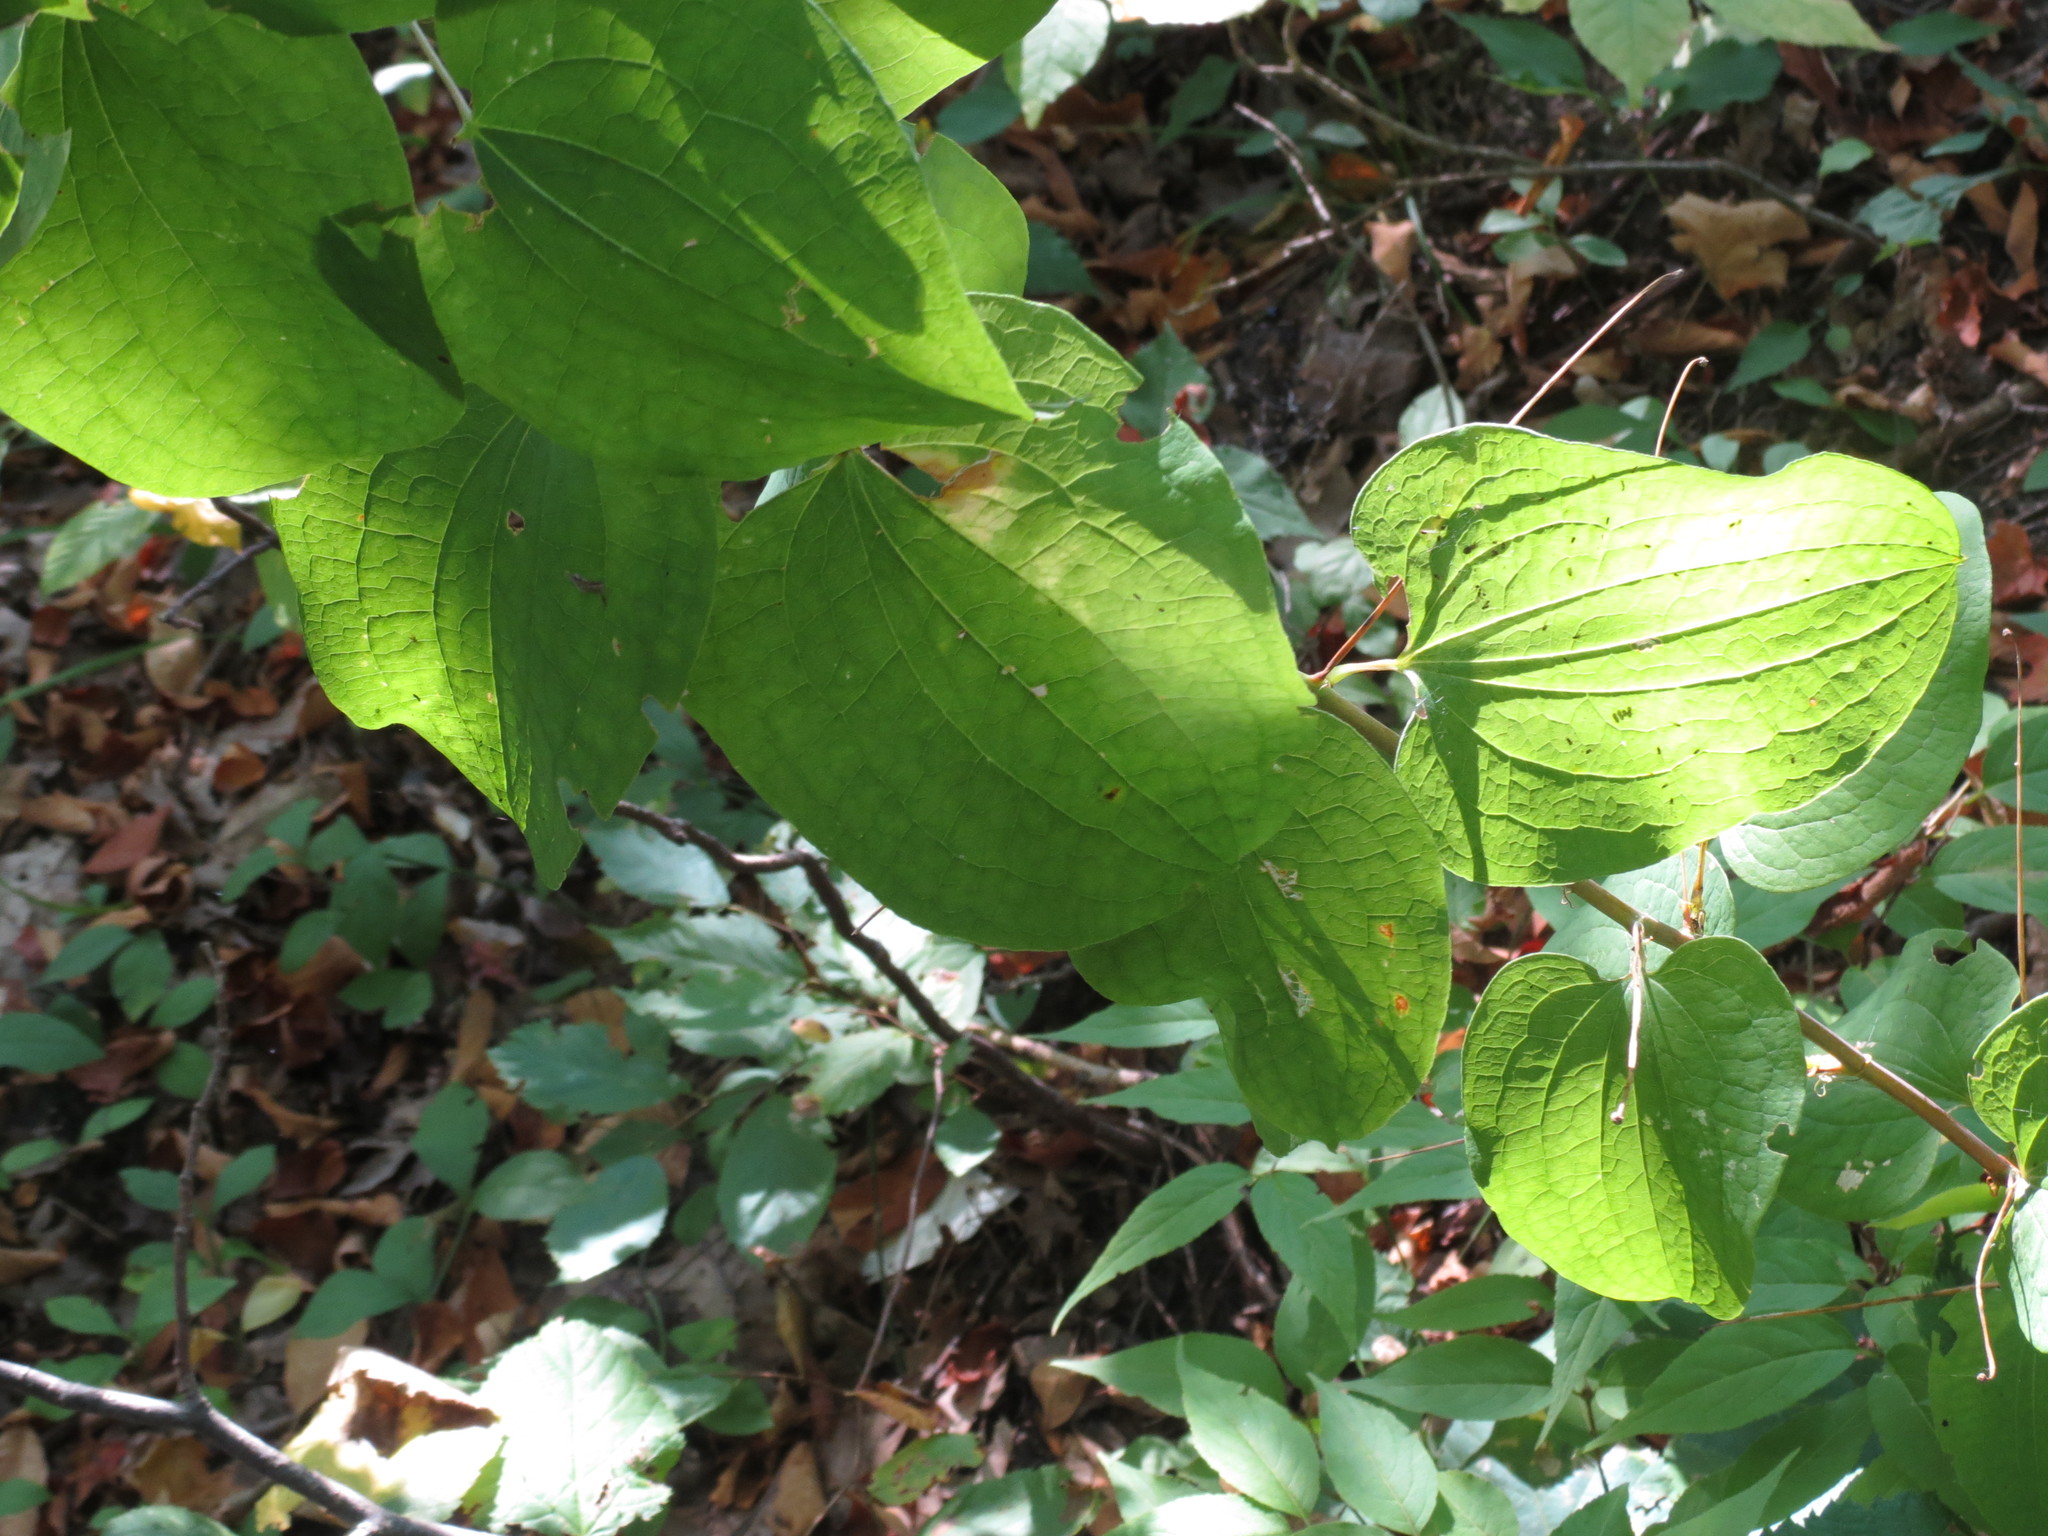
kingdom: Plantae
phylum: Tracheophyta
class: Liliopsida
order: Liliales
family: Smilacaceae
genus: Smilax
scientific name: Smilax herbacea
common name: Jacob's-ladder
